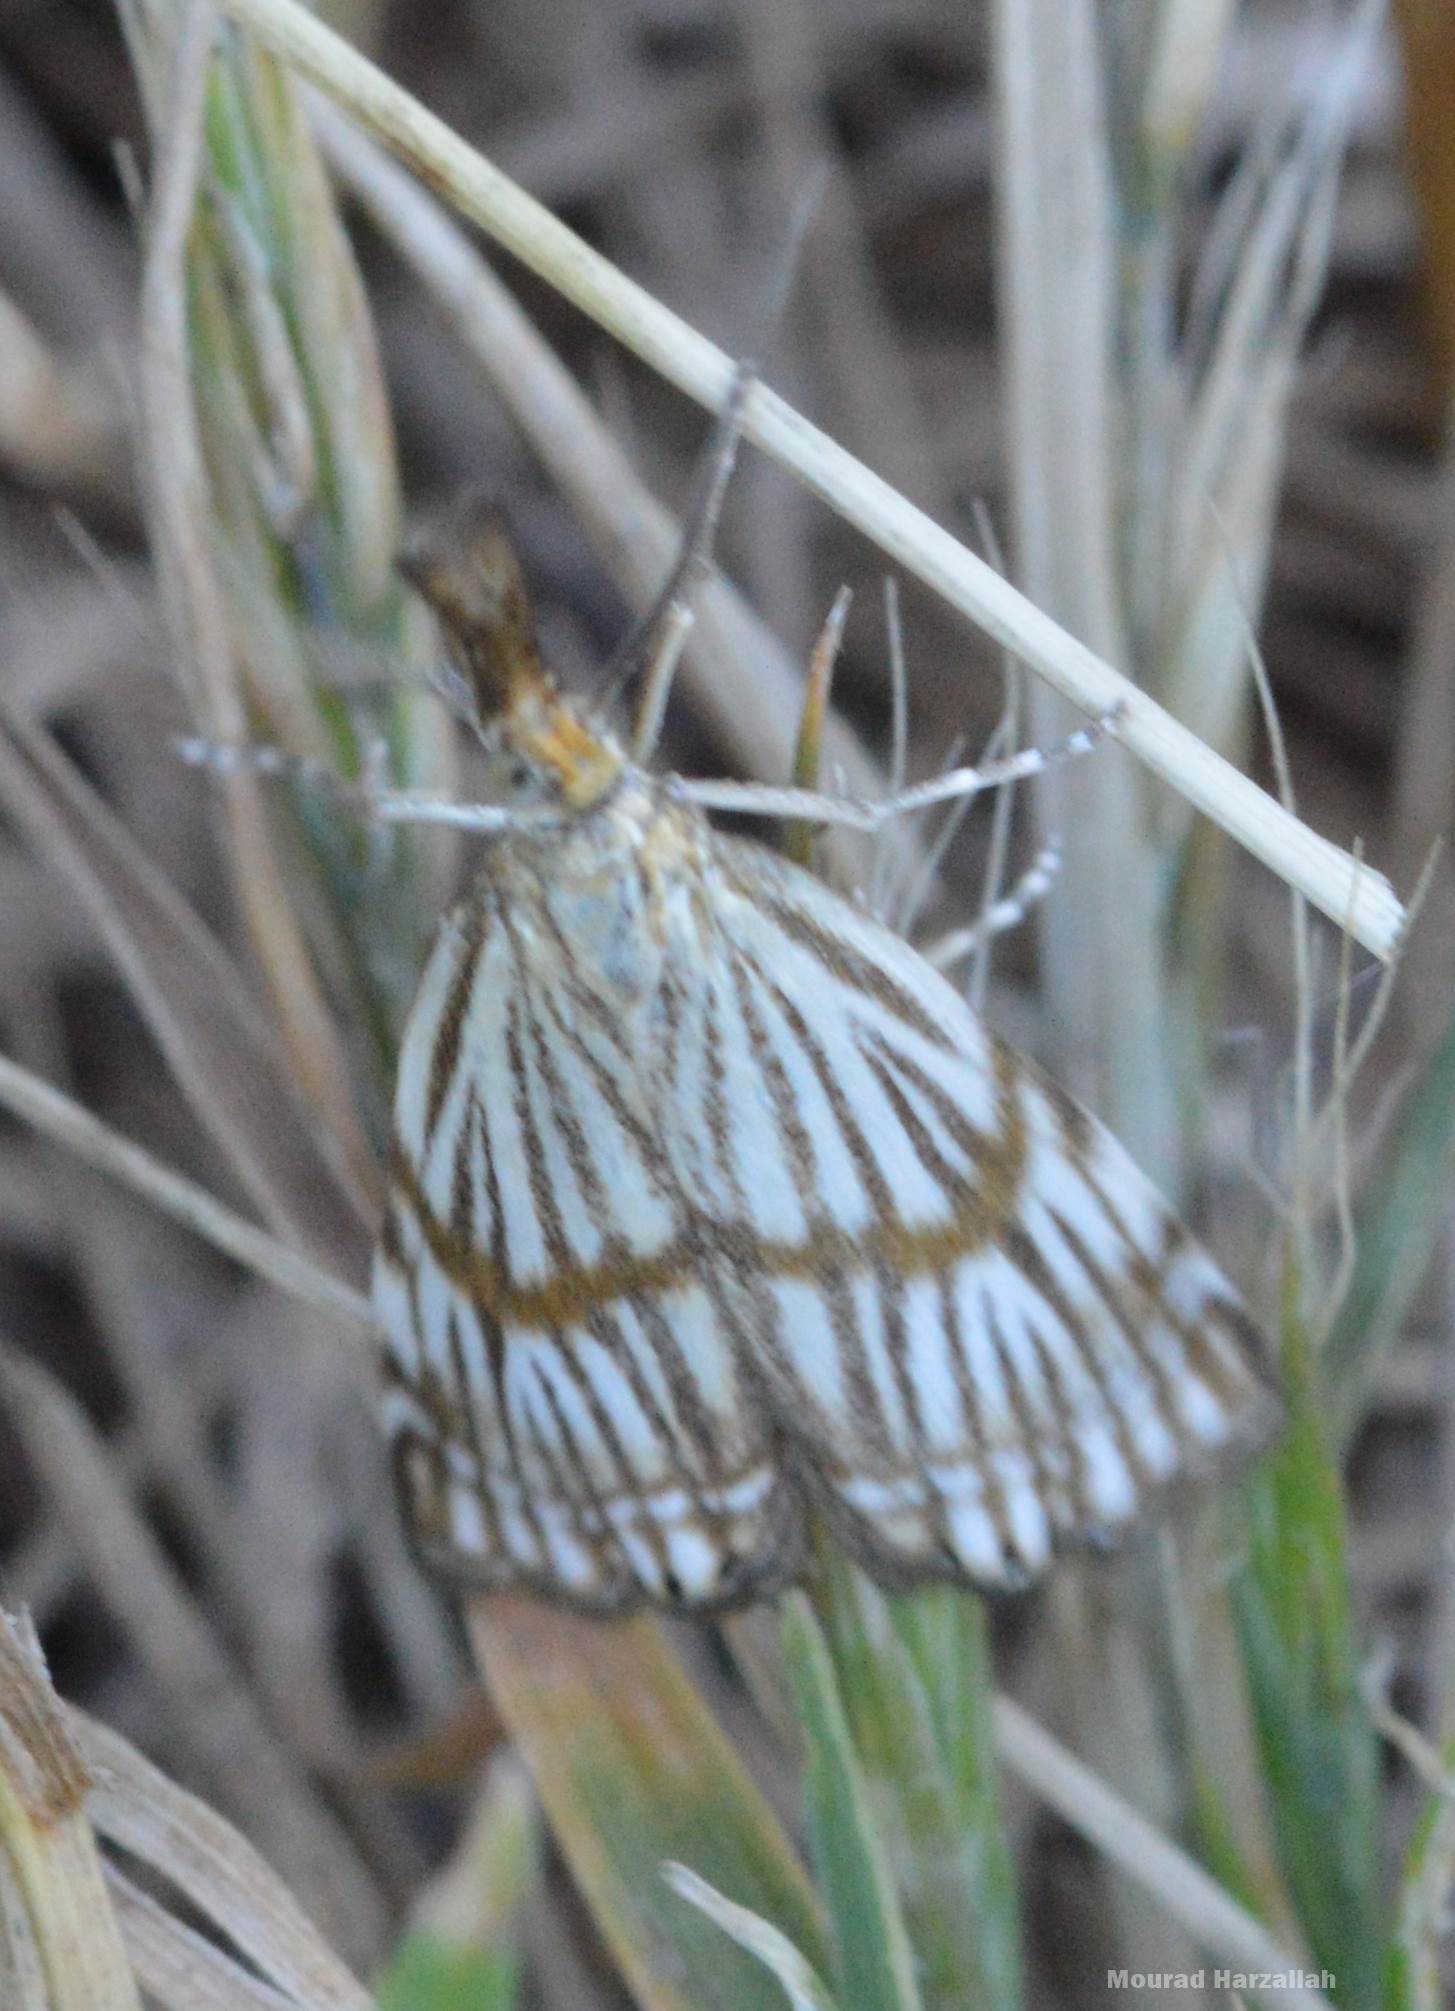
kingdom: Animalia
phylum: Arthropoda
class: Insecta
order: Lepidoptera
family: Crambidae
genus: Chrysocrambus
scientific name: Chrysocrambus linetella
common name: Orange-bar grass-veneer
